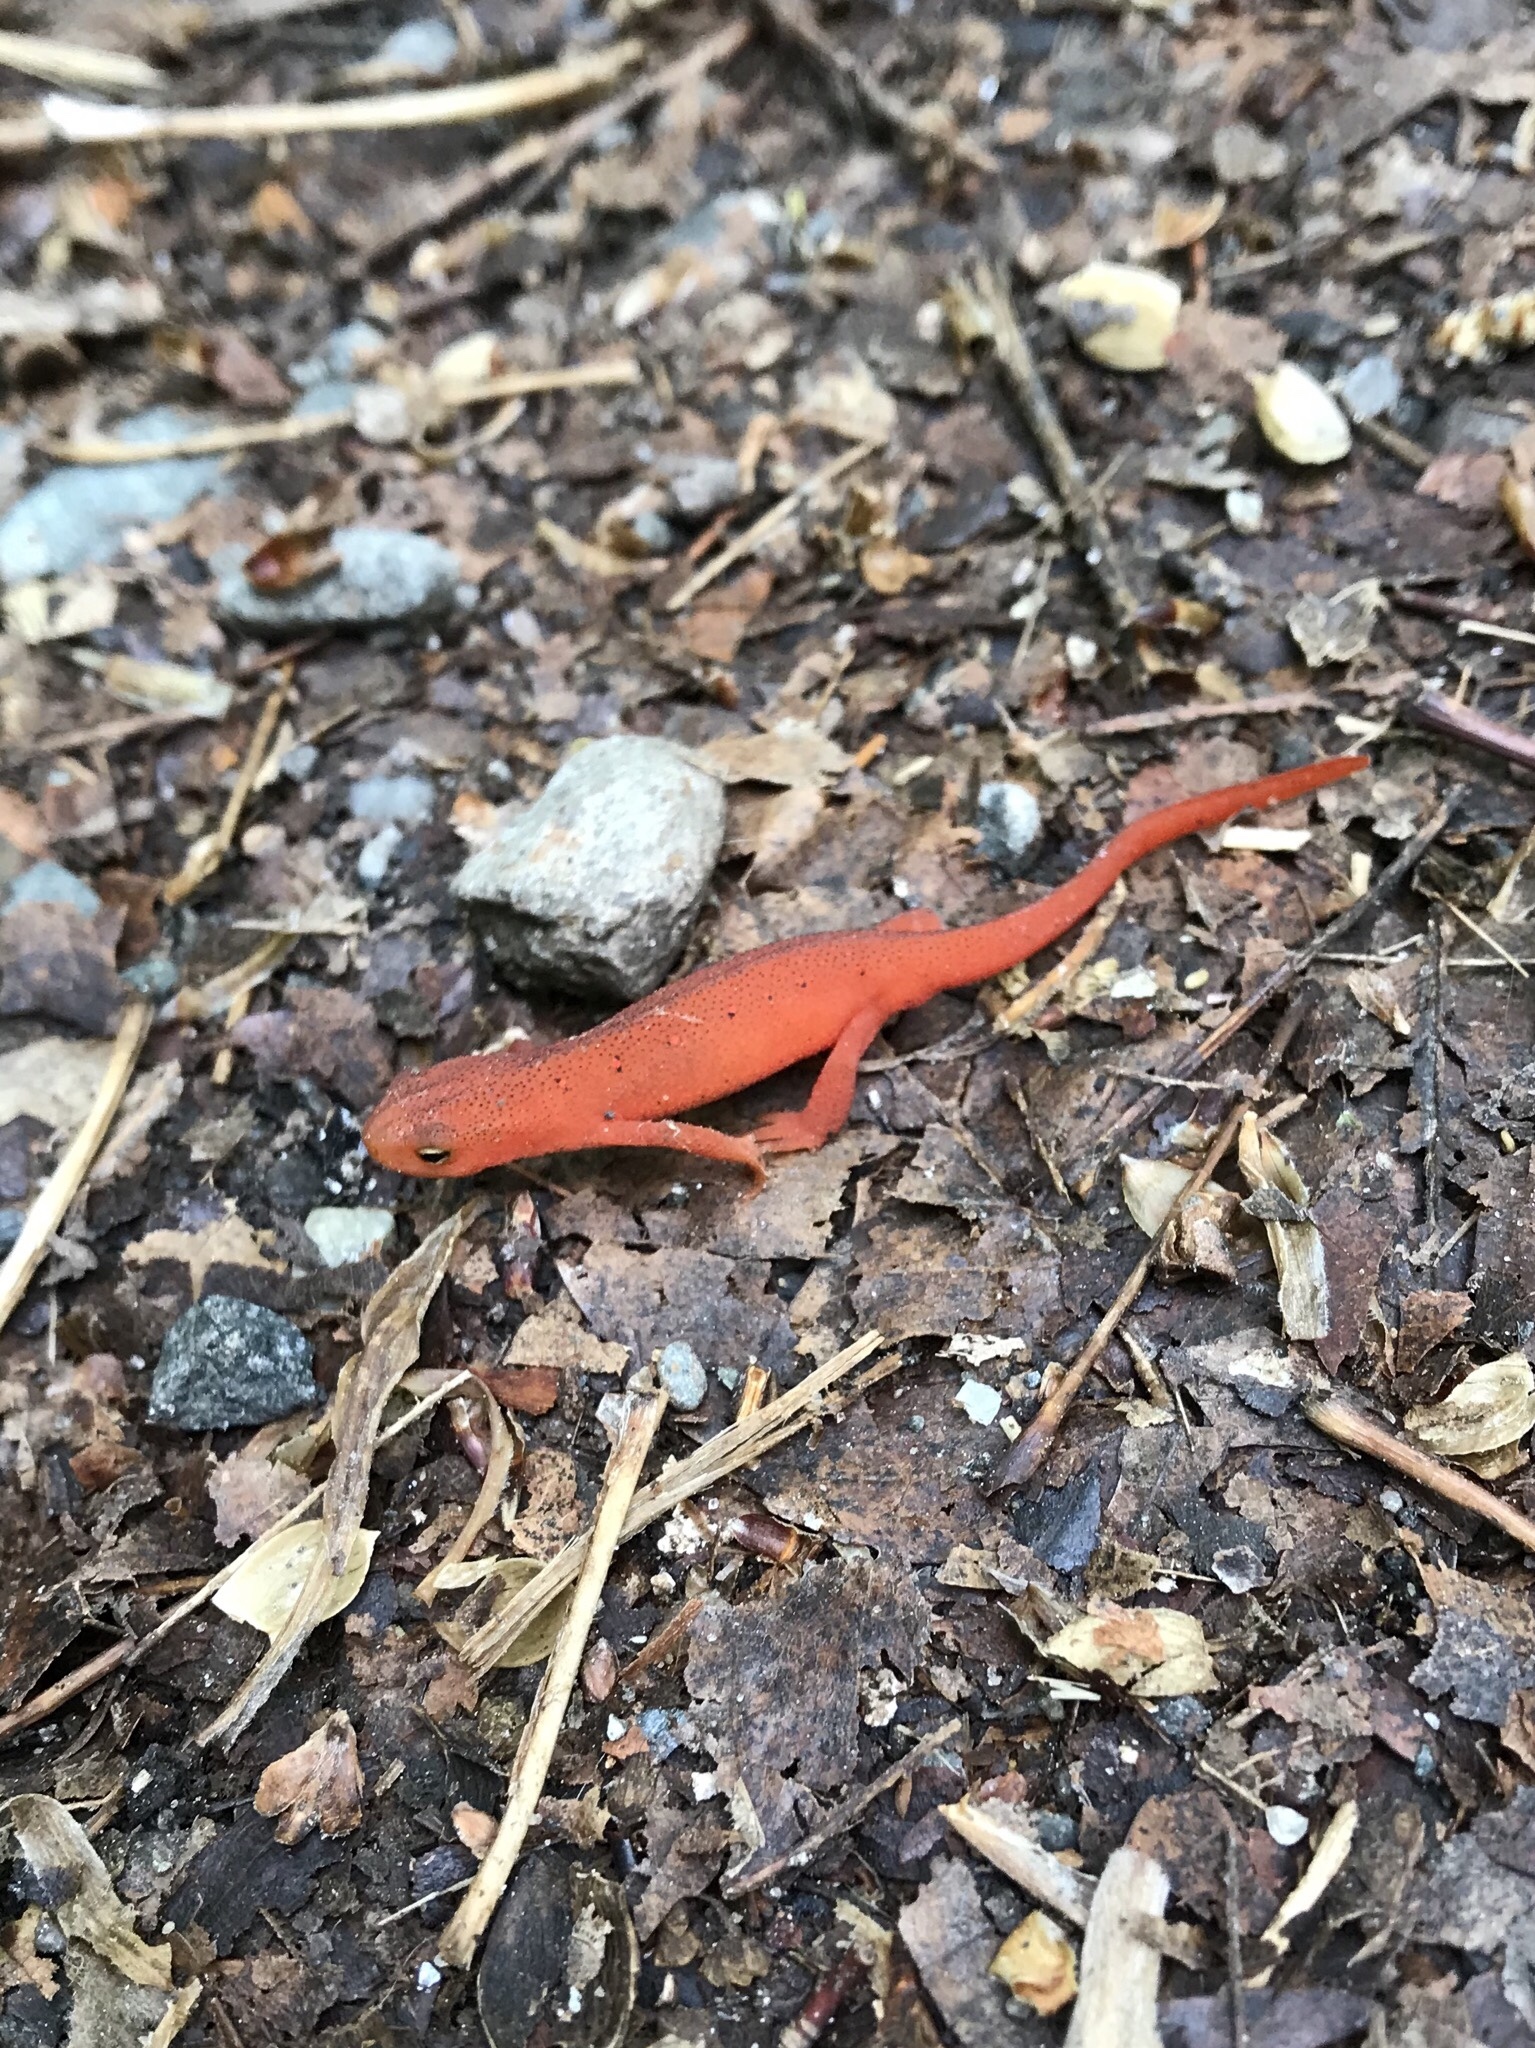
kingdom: Animalia
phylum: Chordata
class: Amphibia
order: Caudata
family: Salamandridae
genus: Notophthalmus
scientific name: Notophthalmus viridescens
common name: Eastern newt
